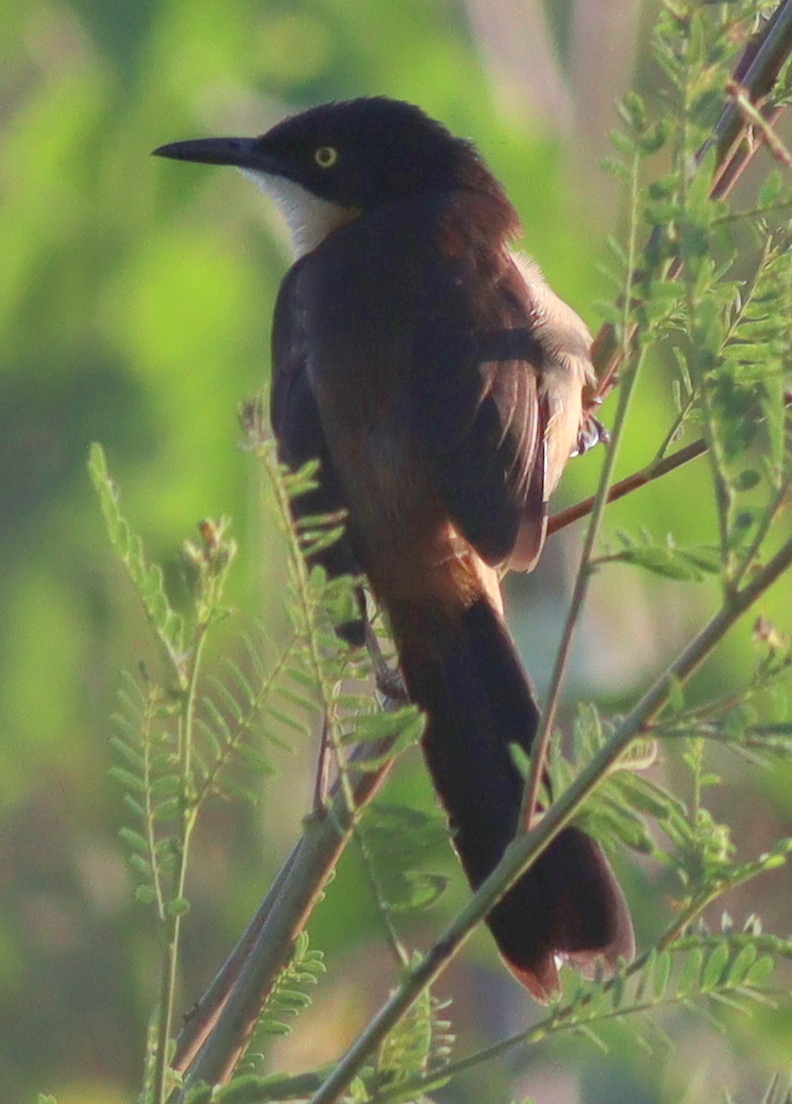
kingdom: Animalia
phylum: Chordata
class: Aves
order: Passeriformes
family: Donacobiidae
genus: Donacobius
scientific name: Donacobius atricapilla
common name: Black-capped donacobius
